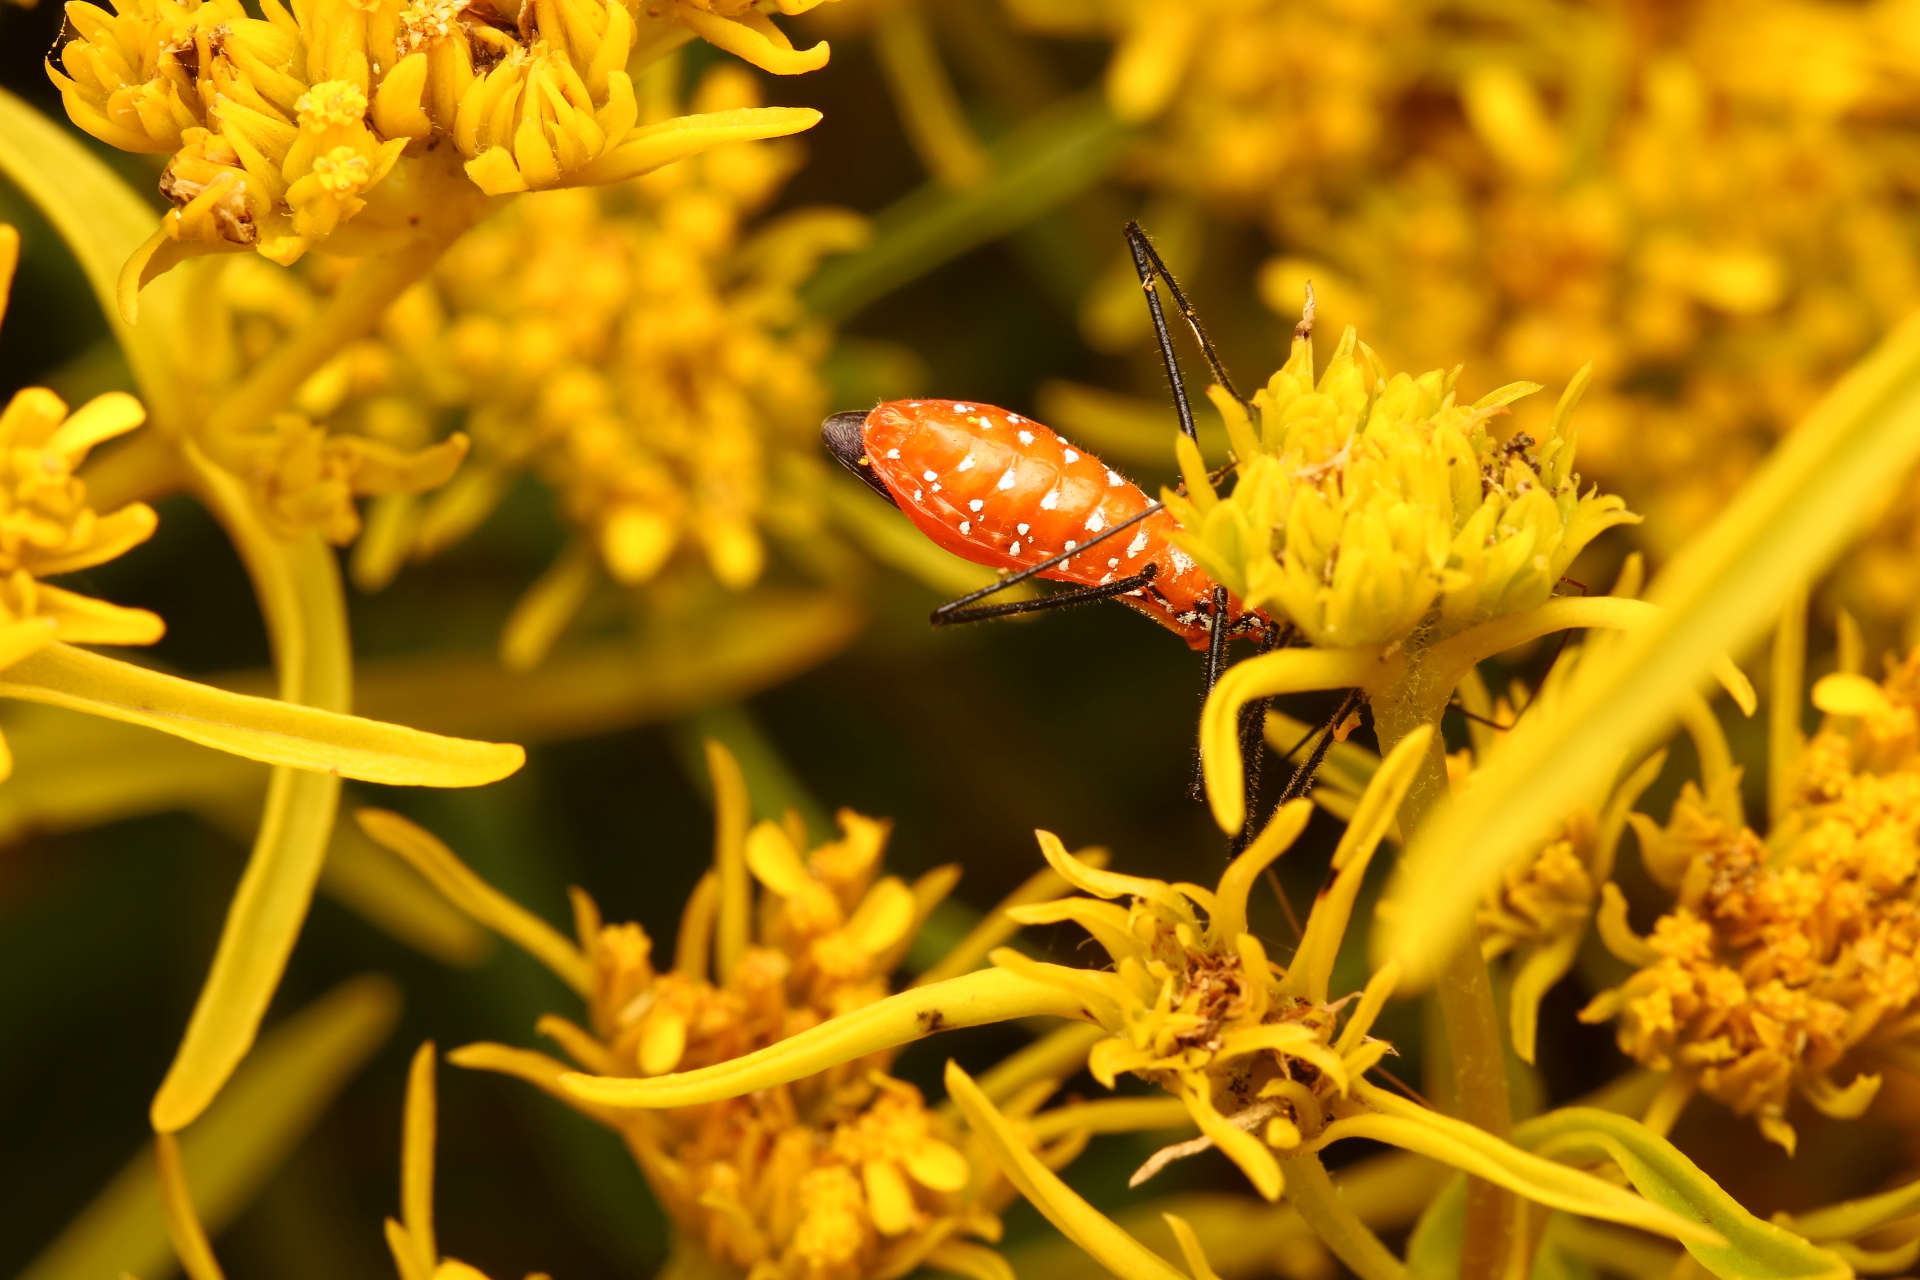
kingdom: Animalia
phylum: Arthropoda
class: Insecta
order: Hemiptera
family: Reduviidae
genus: Zelus
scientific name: Zelus longipes
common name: Milkweed assassin bug
